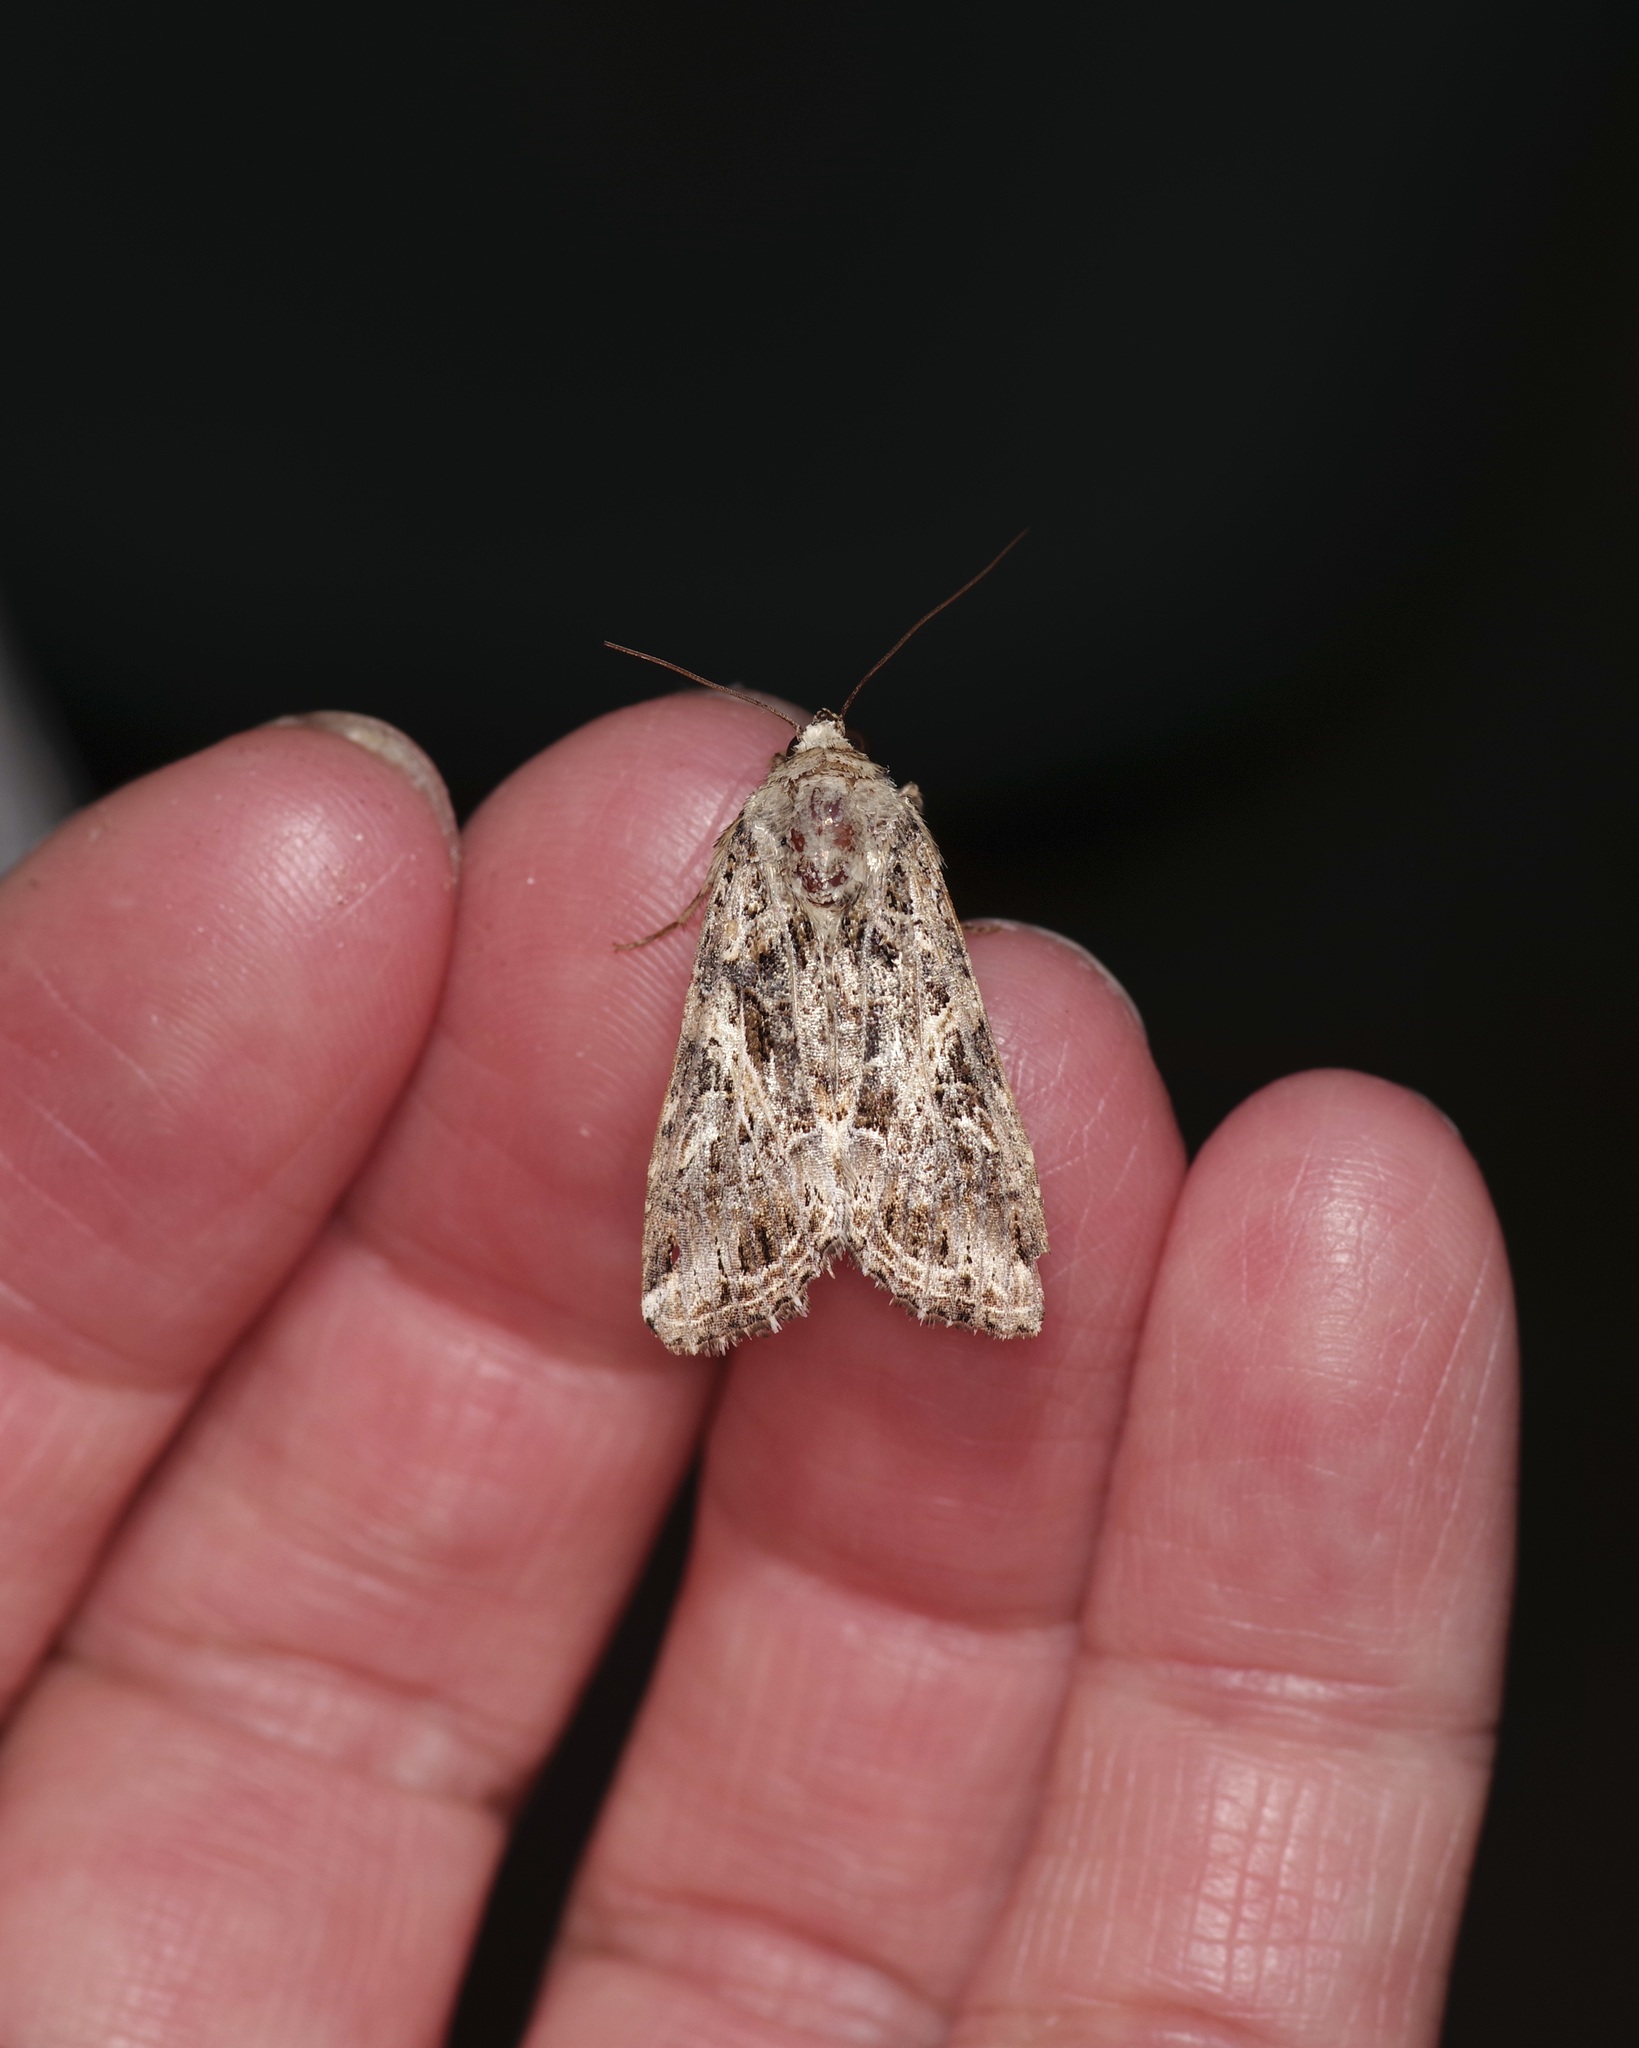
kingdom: Animalia
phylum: Arthropoda
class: Insecta
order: Lepidoptera
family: Noctuidae
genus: Spodoptera
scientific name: Spodoptera ornithogalli
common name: Yellow-striped armyworm
